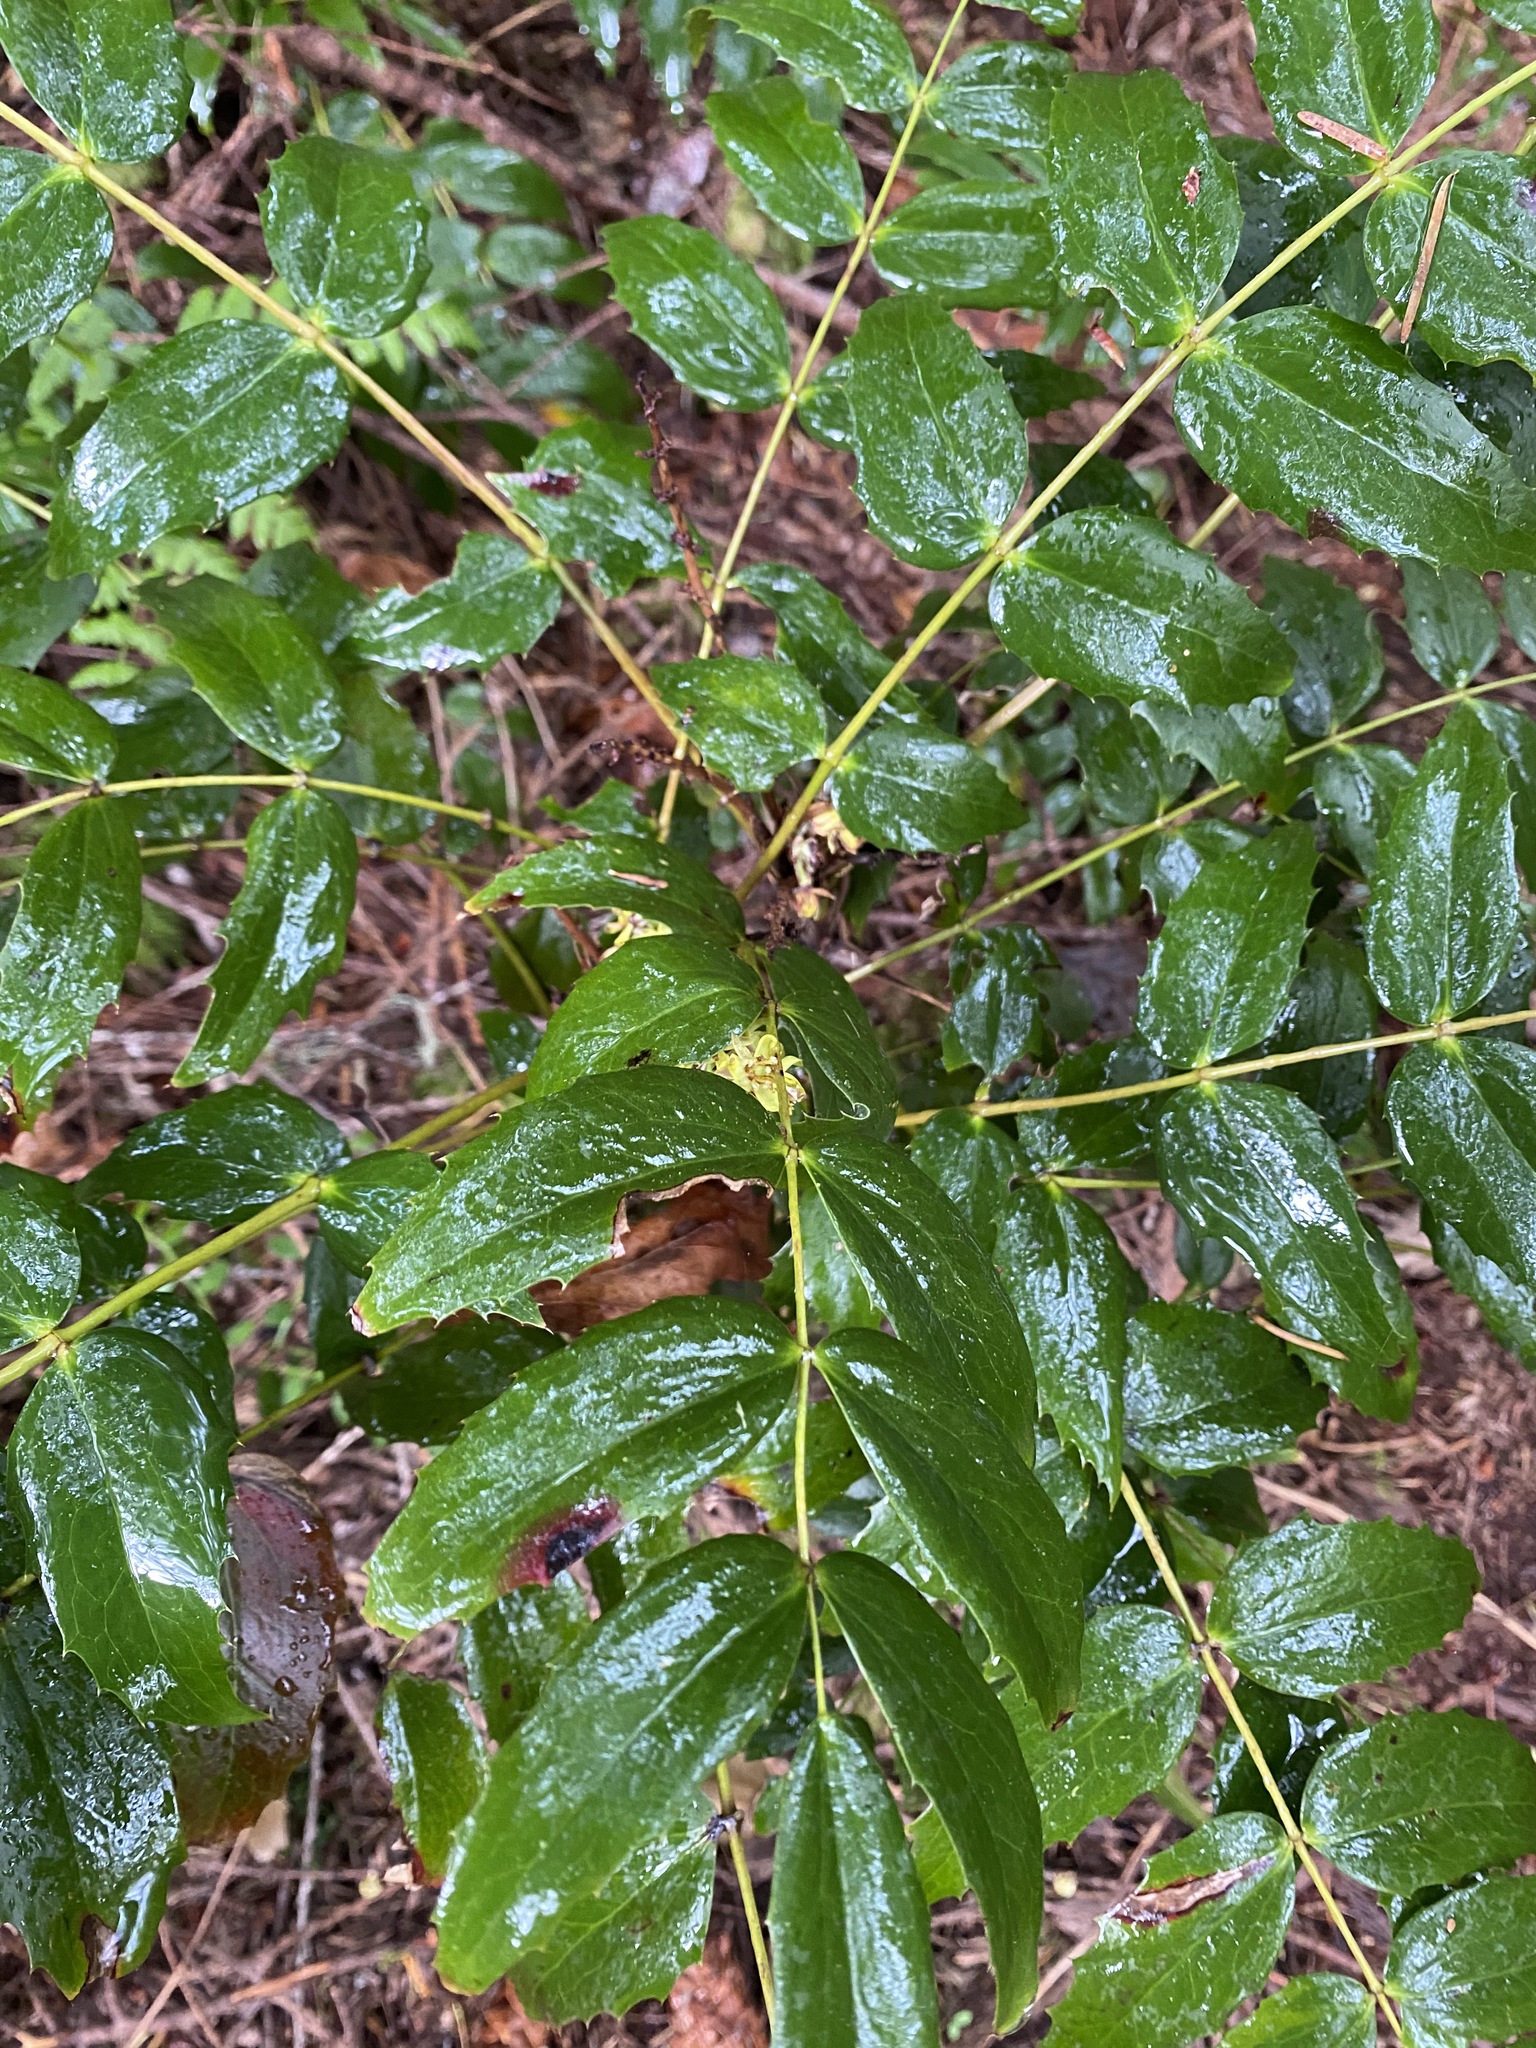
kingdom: Plantae
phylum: Tracheophyta
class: Magnoliopsida
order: Ranunculales
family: Berberidaceae
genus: Mahonia
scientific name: Mahonia nervosa
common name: Cascade oregon-grape
